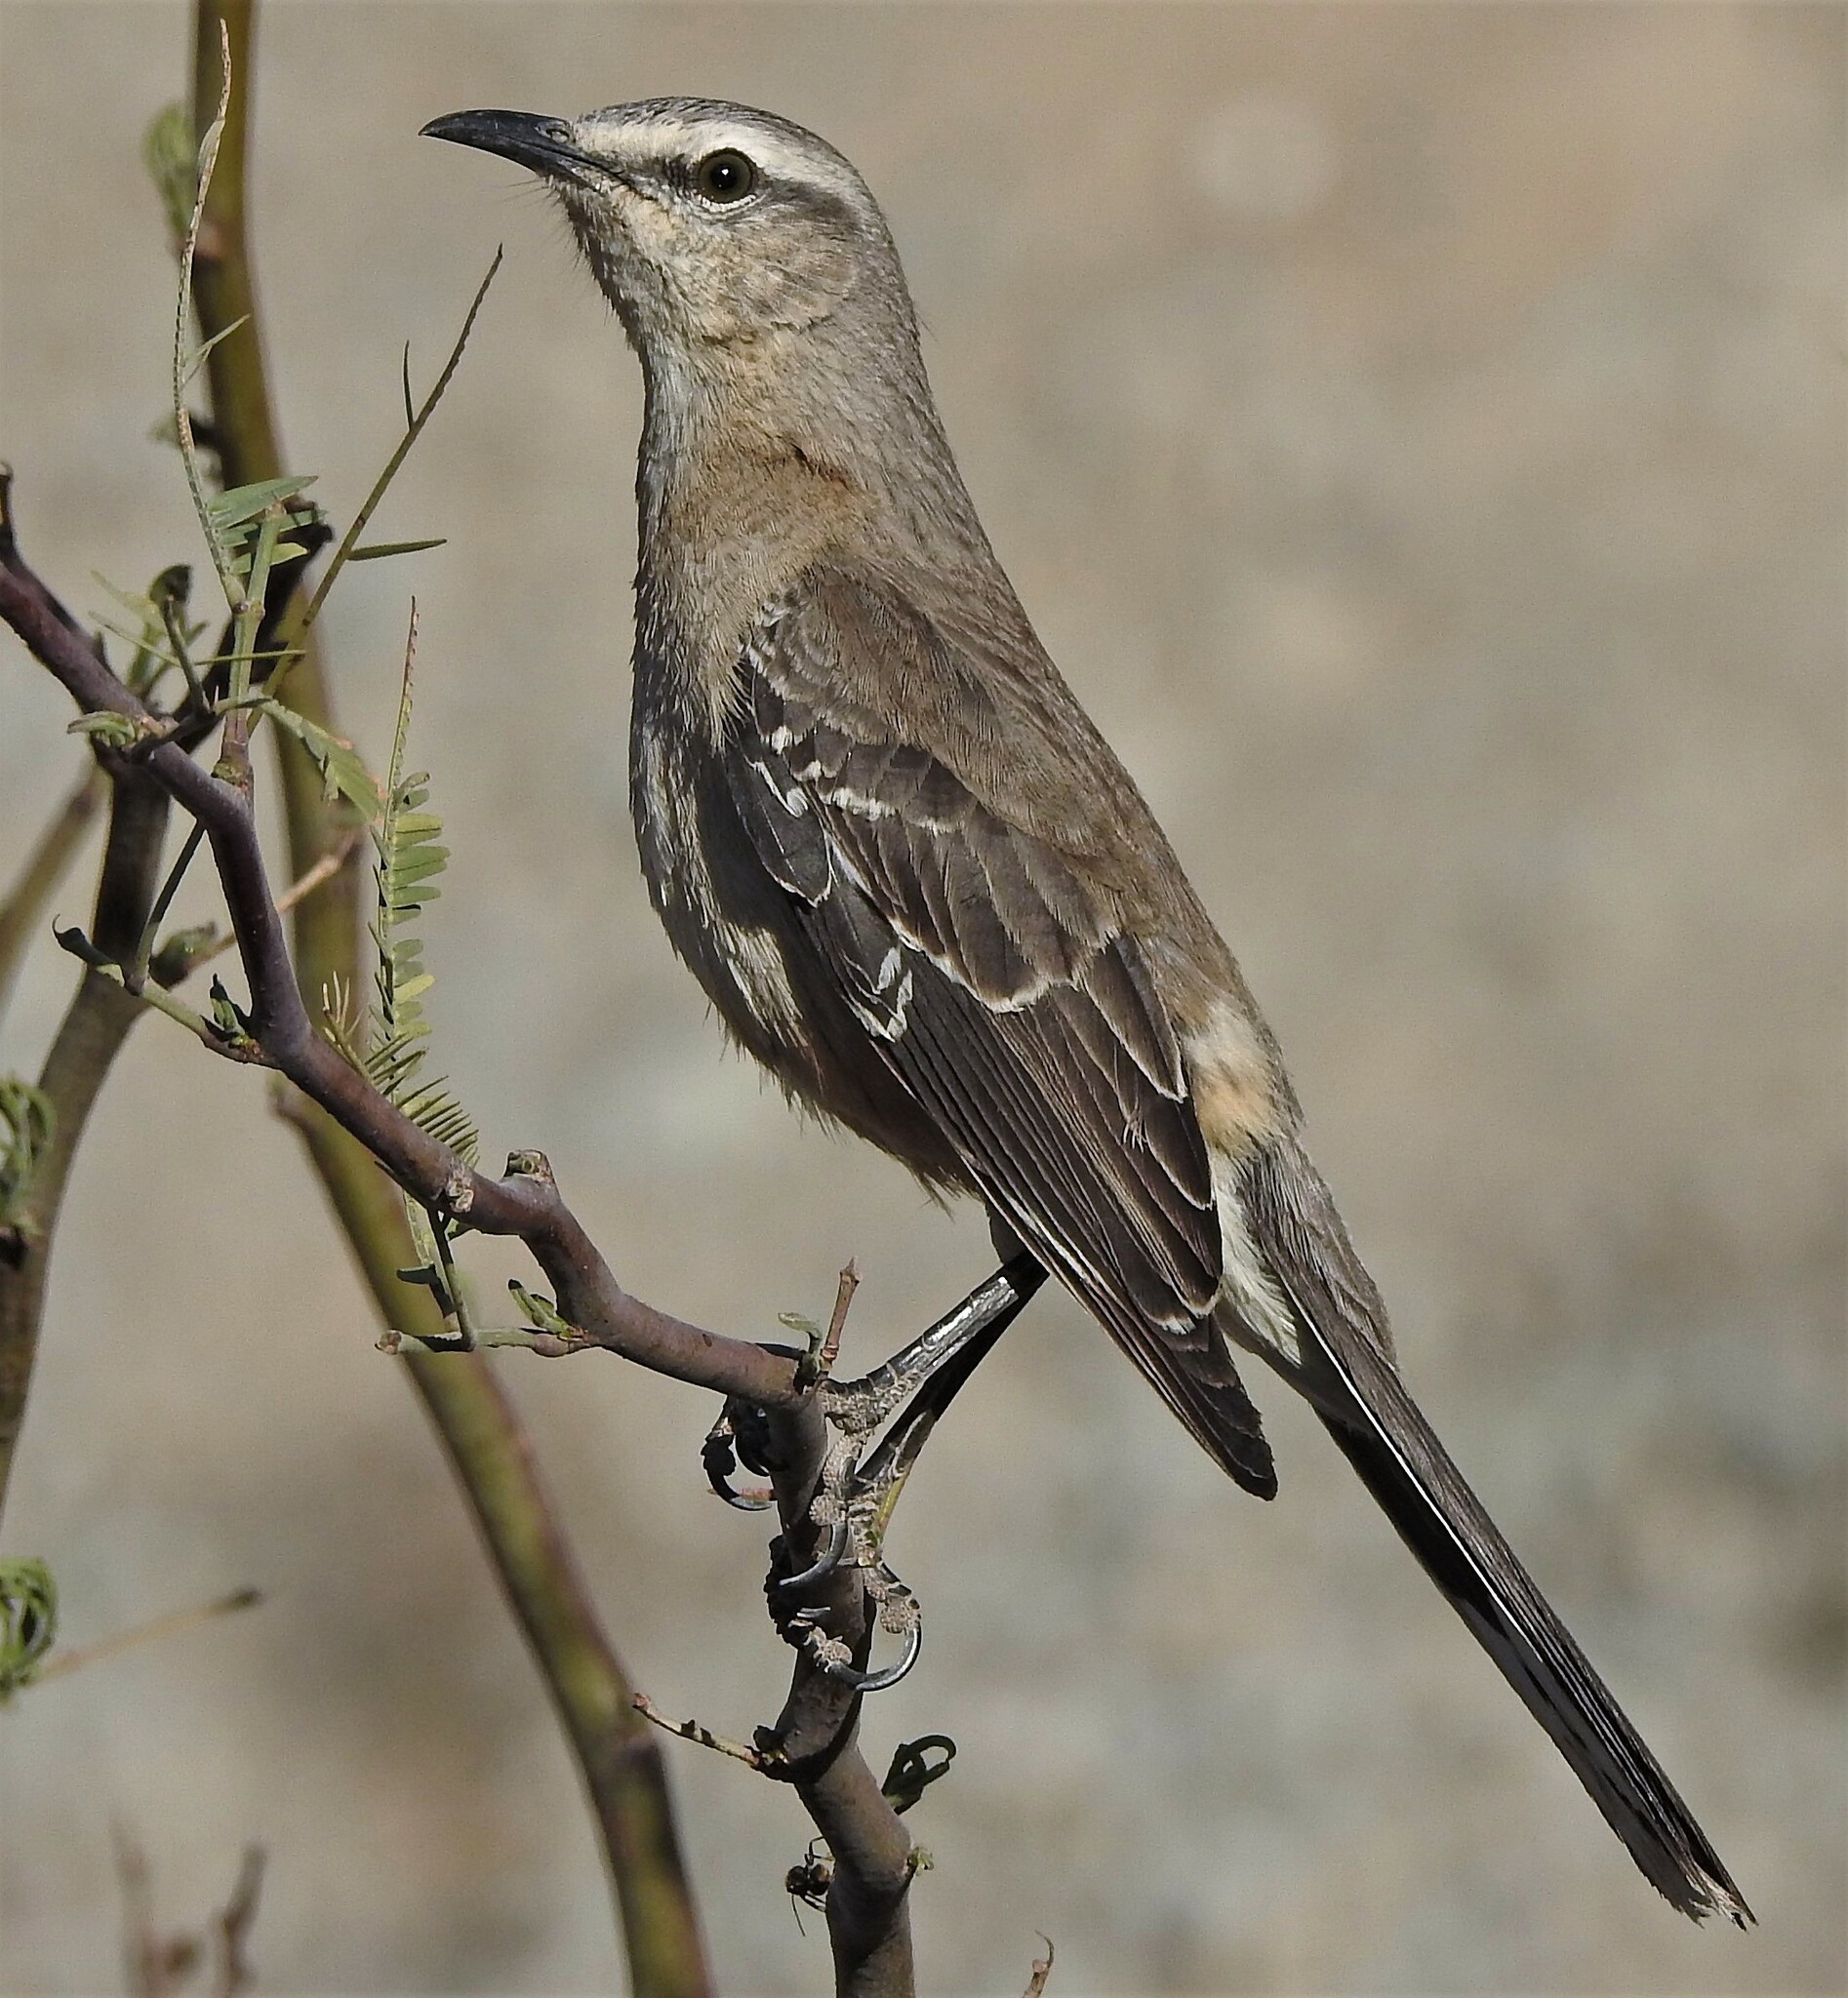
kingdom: Animalia
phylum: Chordata
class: Aves
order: Passeriformes
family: Mimidae
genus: Mimus
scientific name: Mimus patagonicus
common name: Patagonian mockingbird
